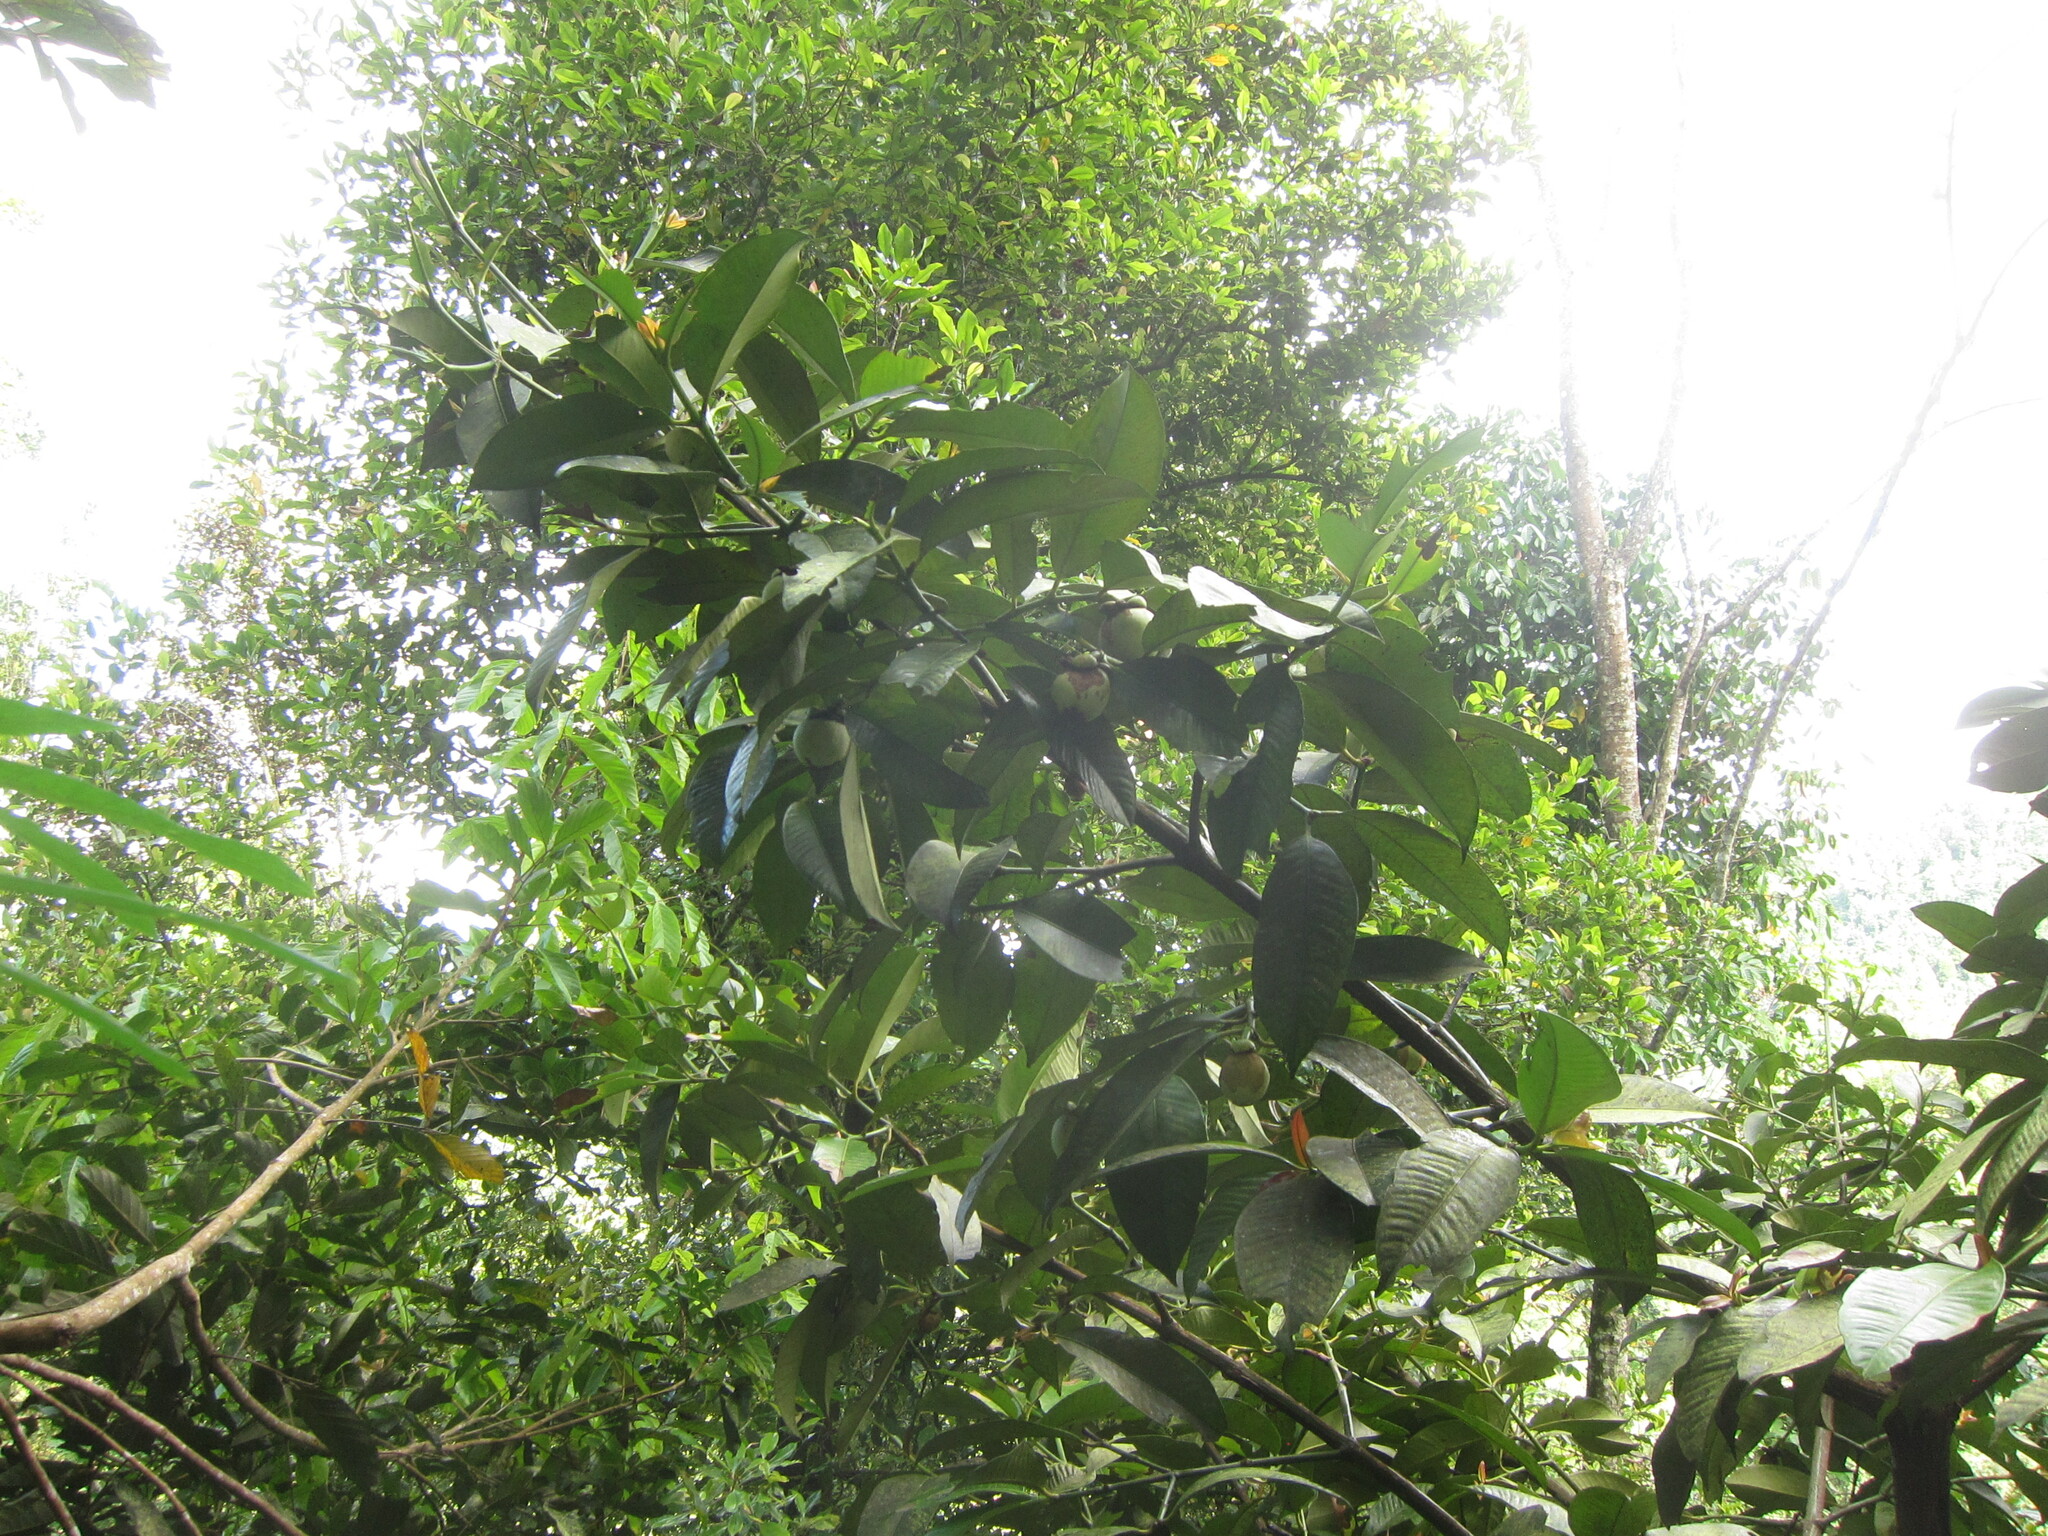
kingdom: Plantae
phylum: Tracheophyta
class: Magnoliopsida
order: Malpighiales
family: Clusiaceae
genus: Garcinia
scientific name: Garcinia mangostana
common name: Mangosteen
